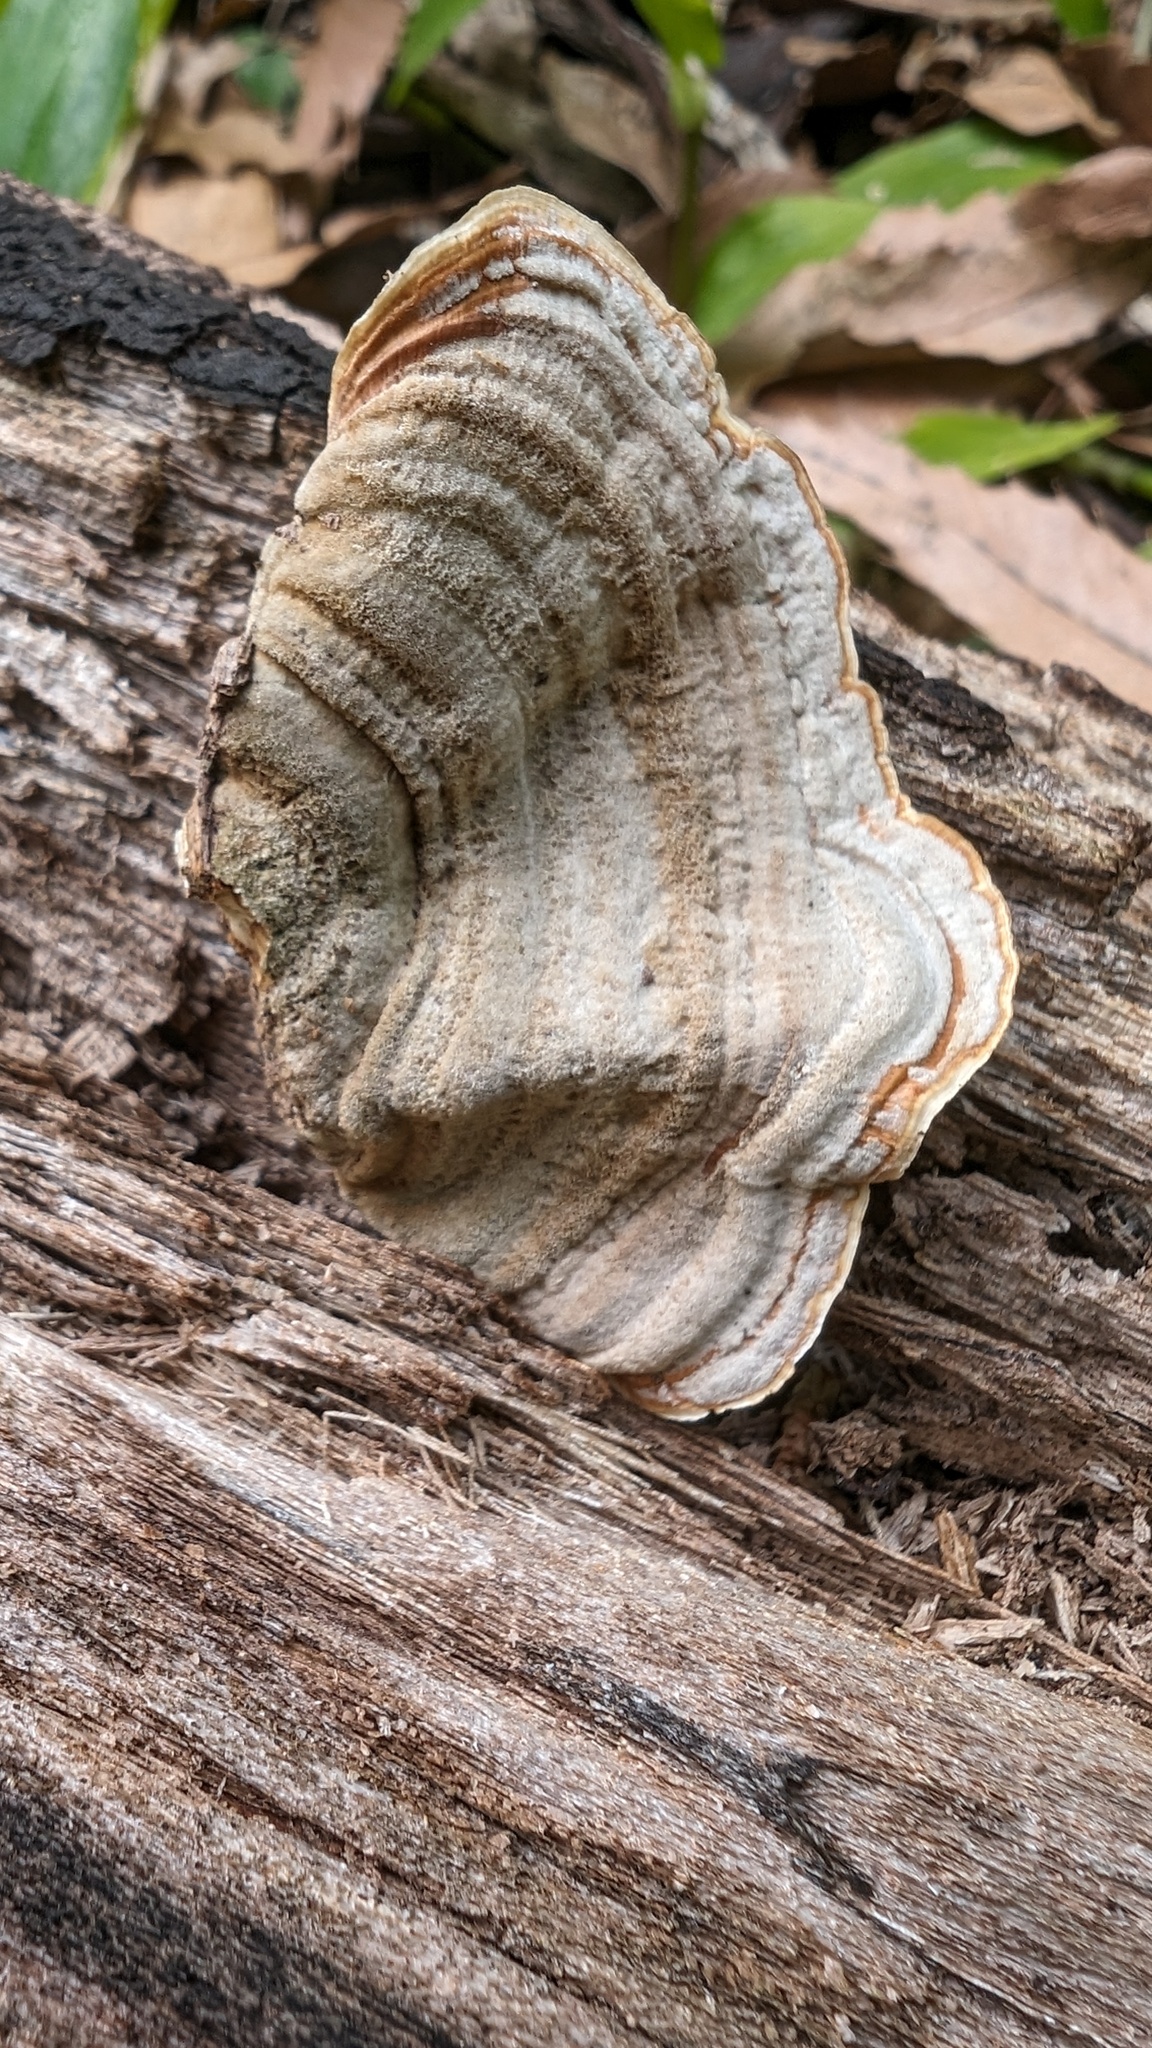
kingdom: Fungi
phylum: Basidiomycota
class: Agaricomycetes
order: Russulales
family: Stereaceae
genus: Stereum
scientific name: Stereum ostrea
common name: False turkeytail
